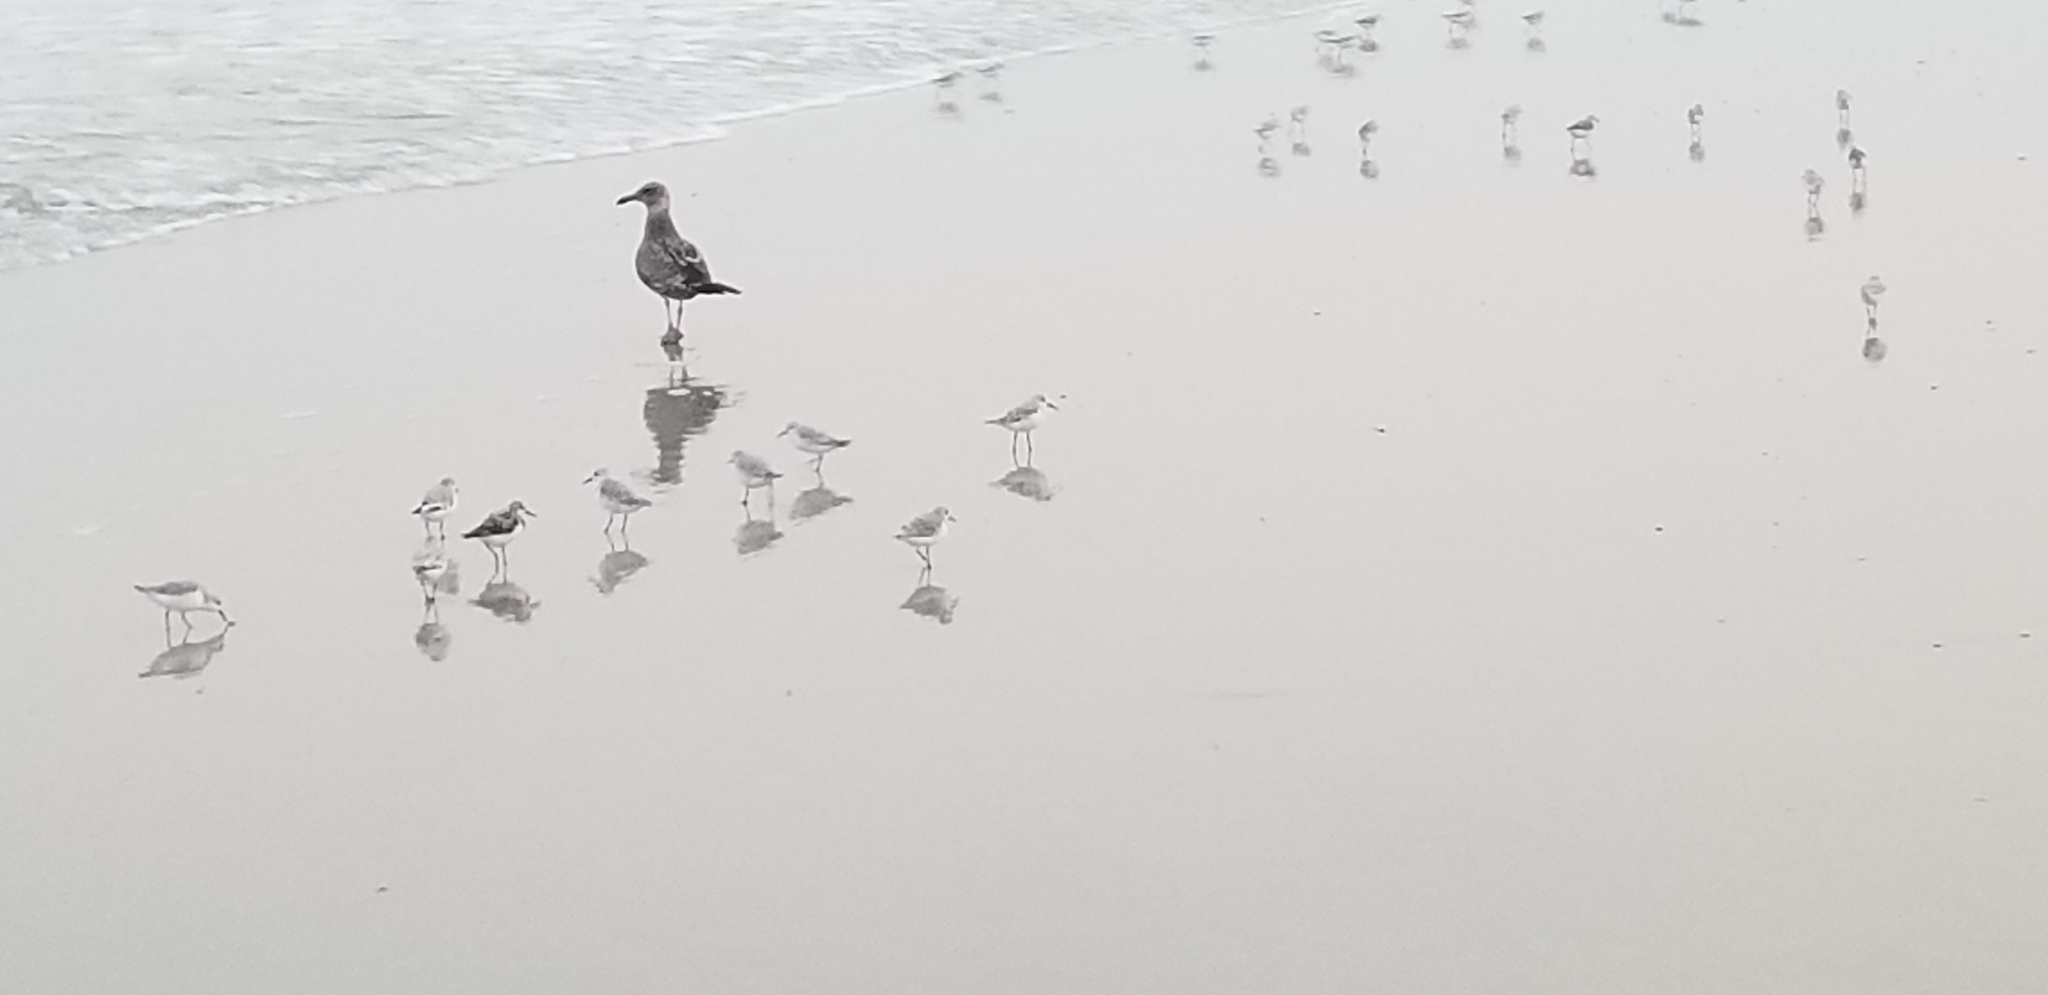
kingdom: Animalia
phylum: Chordata
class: Aves
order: Charadriiformes
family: Scolopacidae
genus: Calidris
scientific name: Calidris alba
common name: Sanderling
